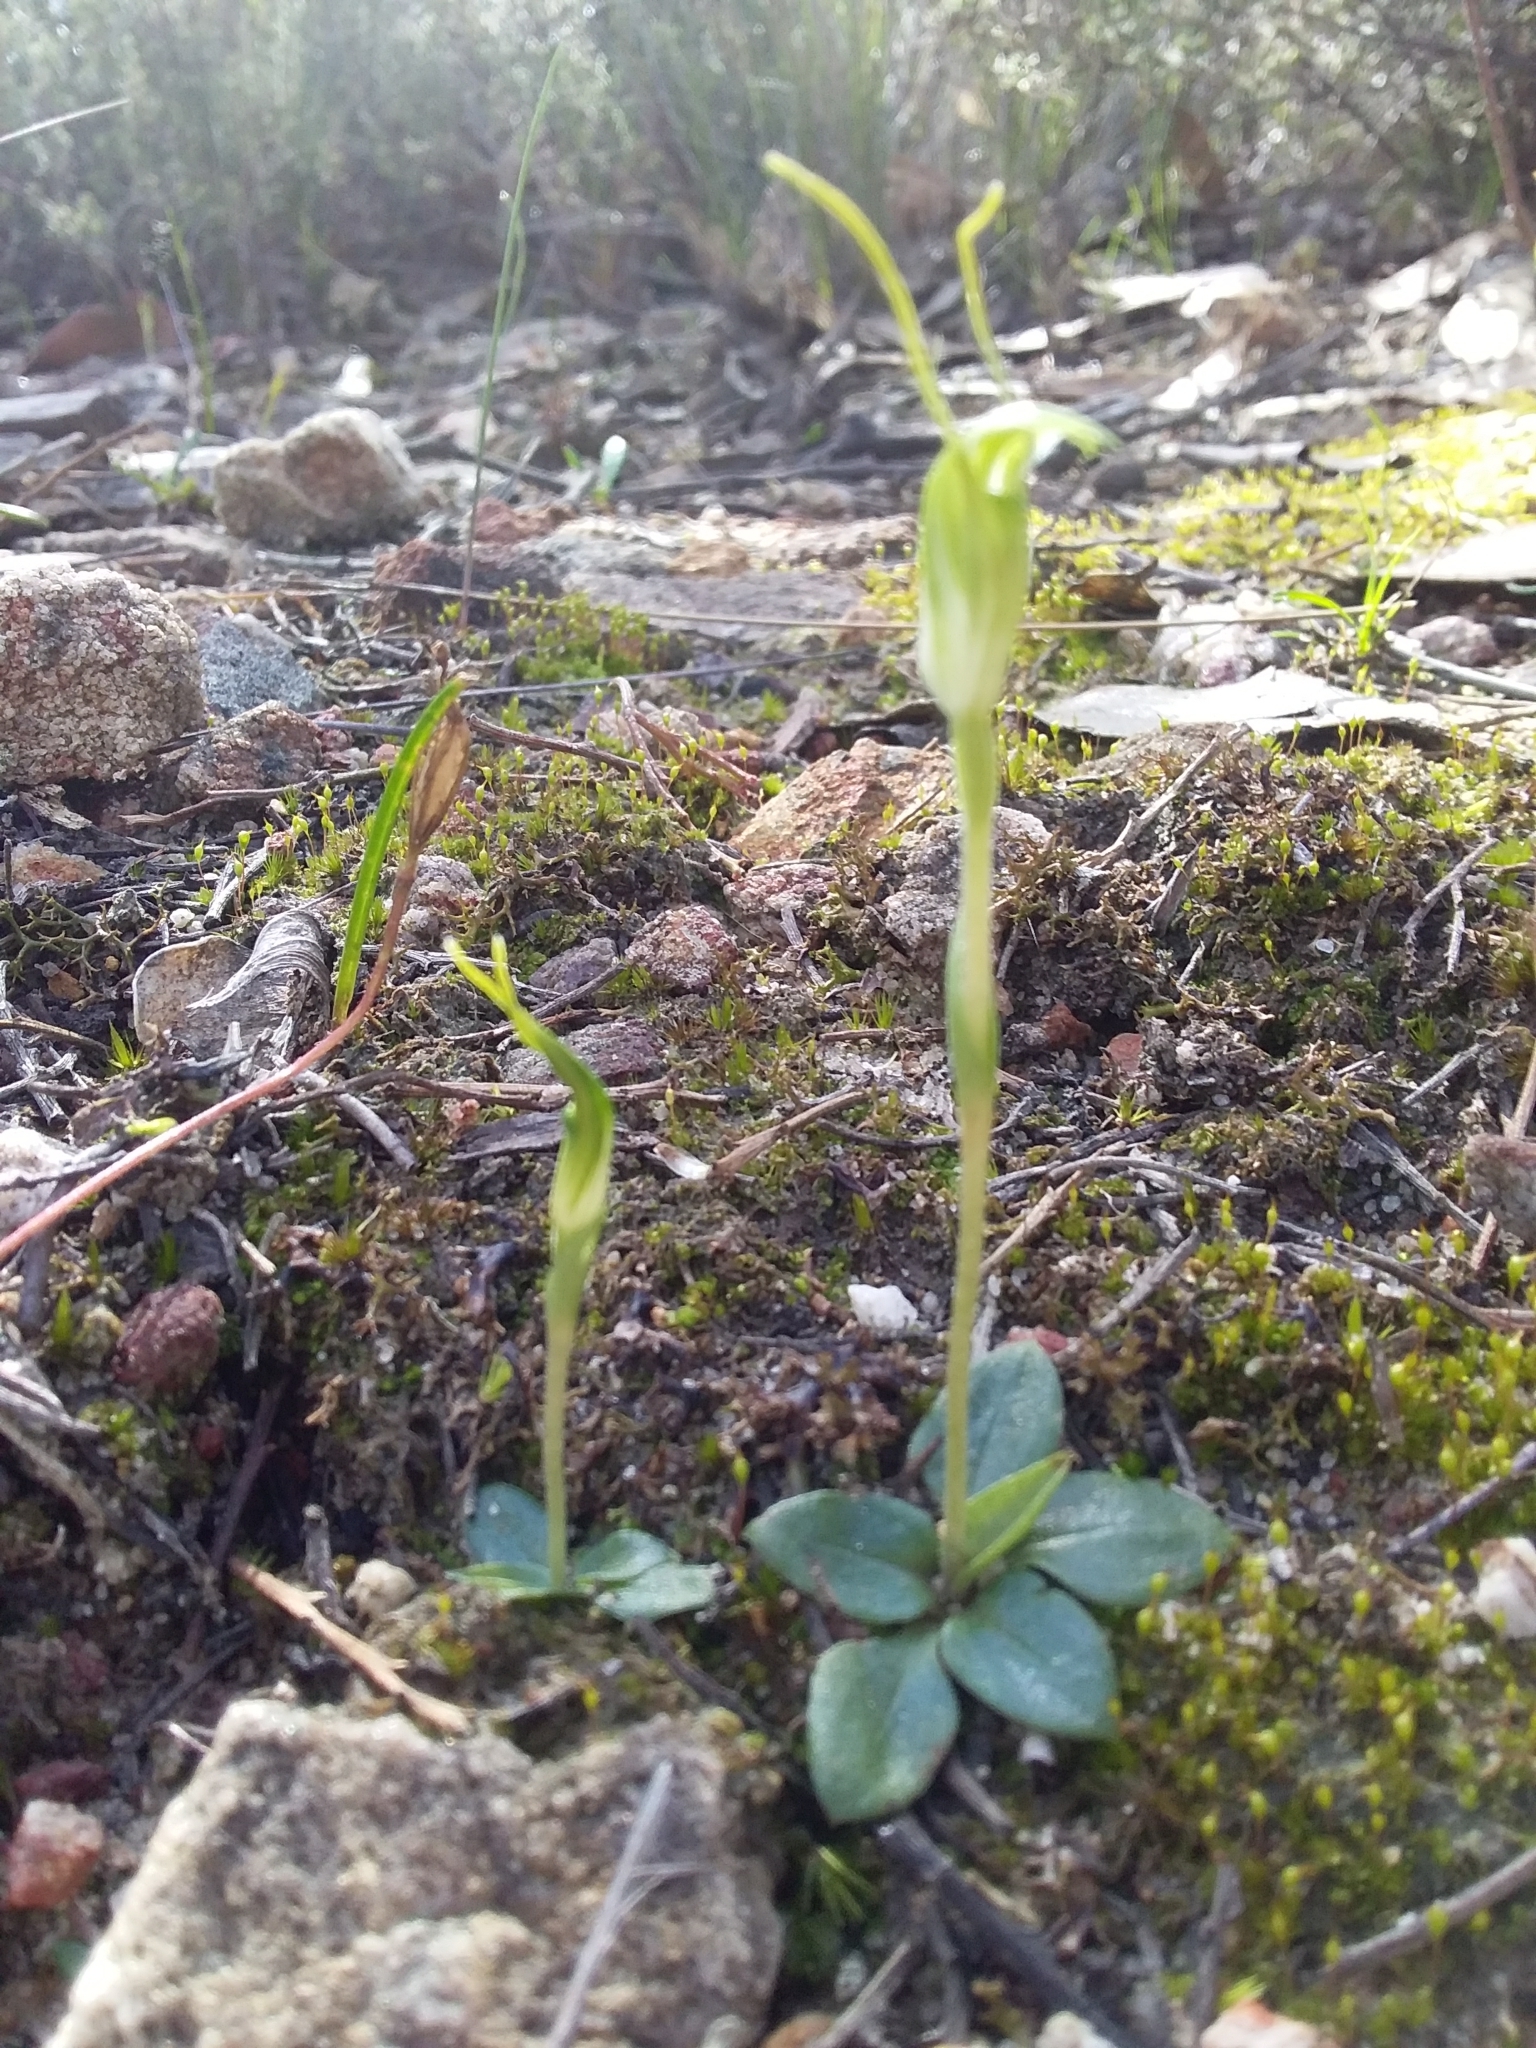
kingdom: Plantae
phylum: Tracheophyta
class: Liliopsida
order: Asparagales
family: Orchidaceae
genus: Pterostylis
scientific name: Pterostylis nana
